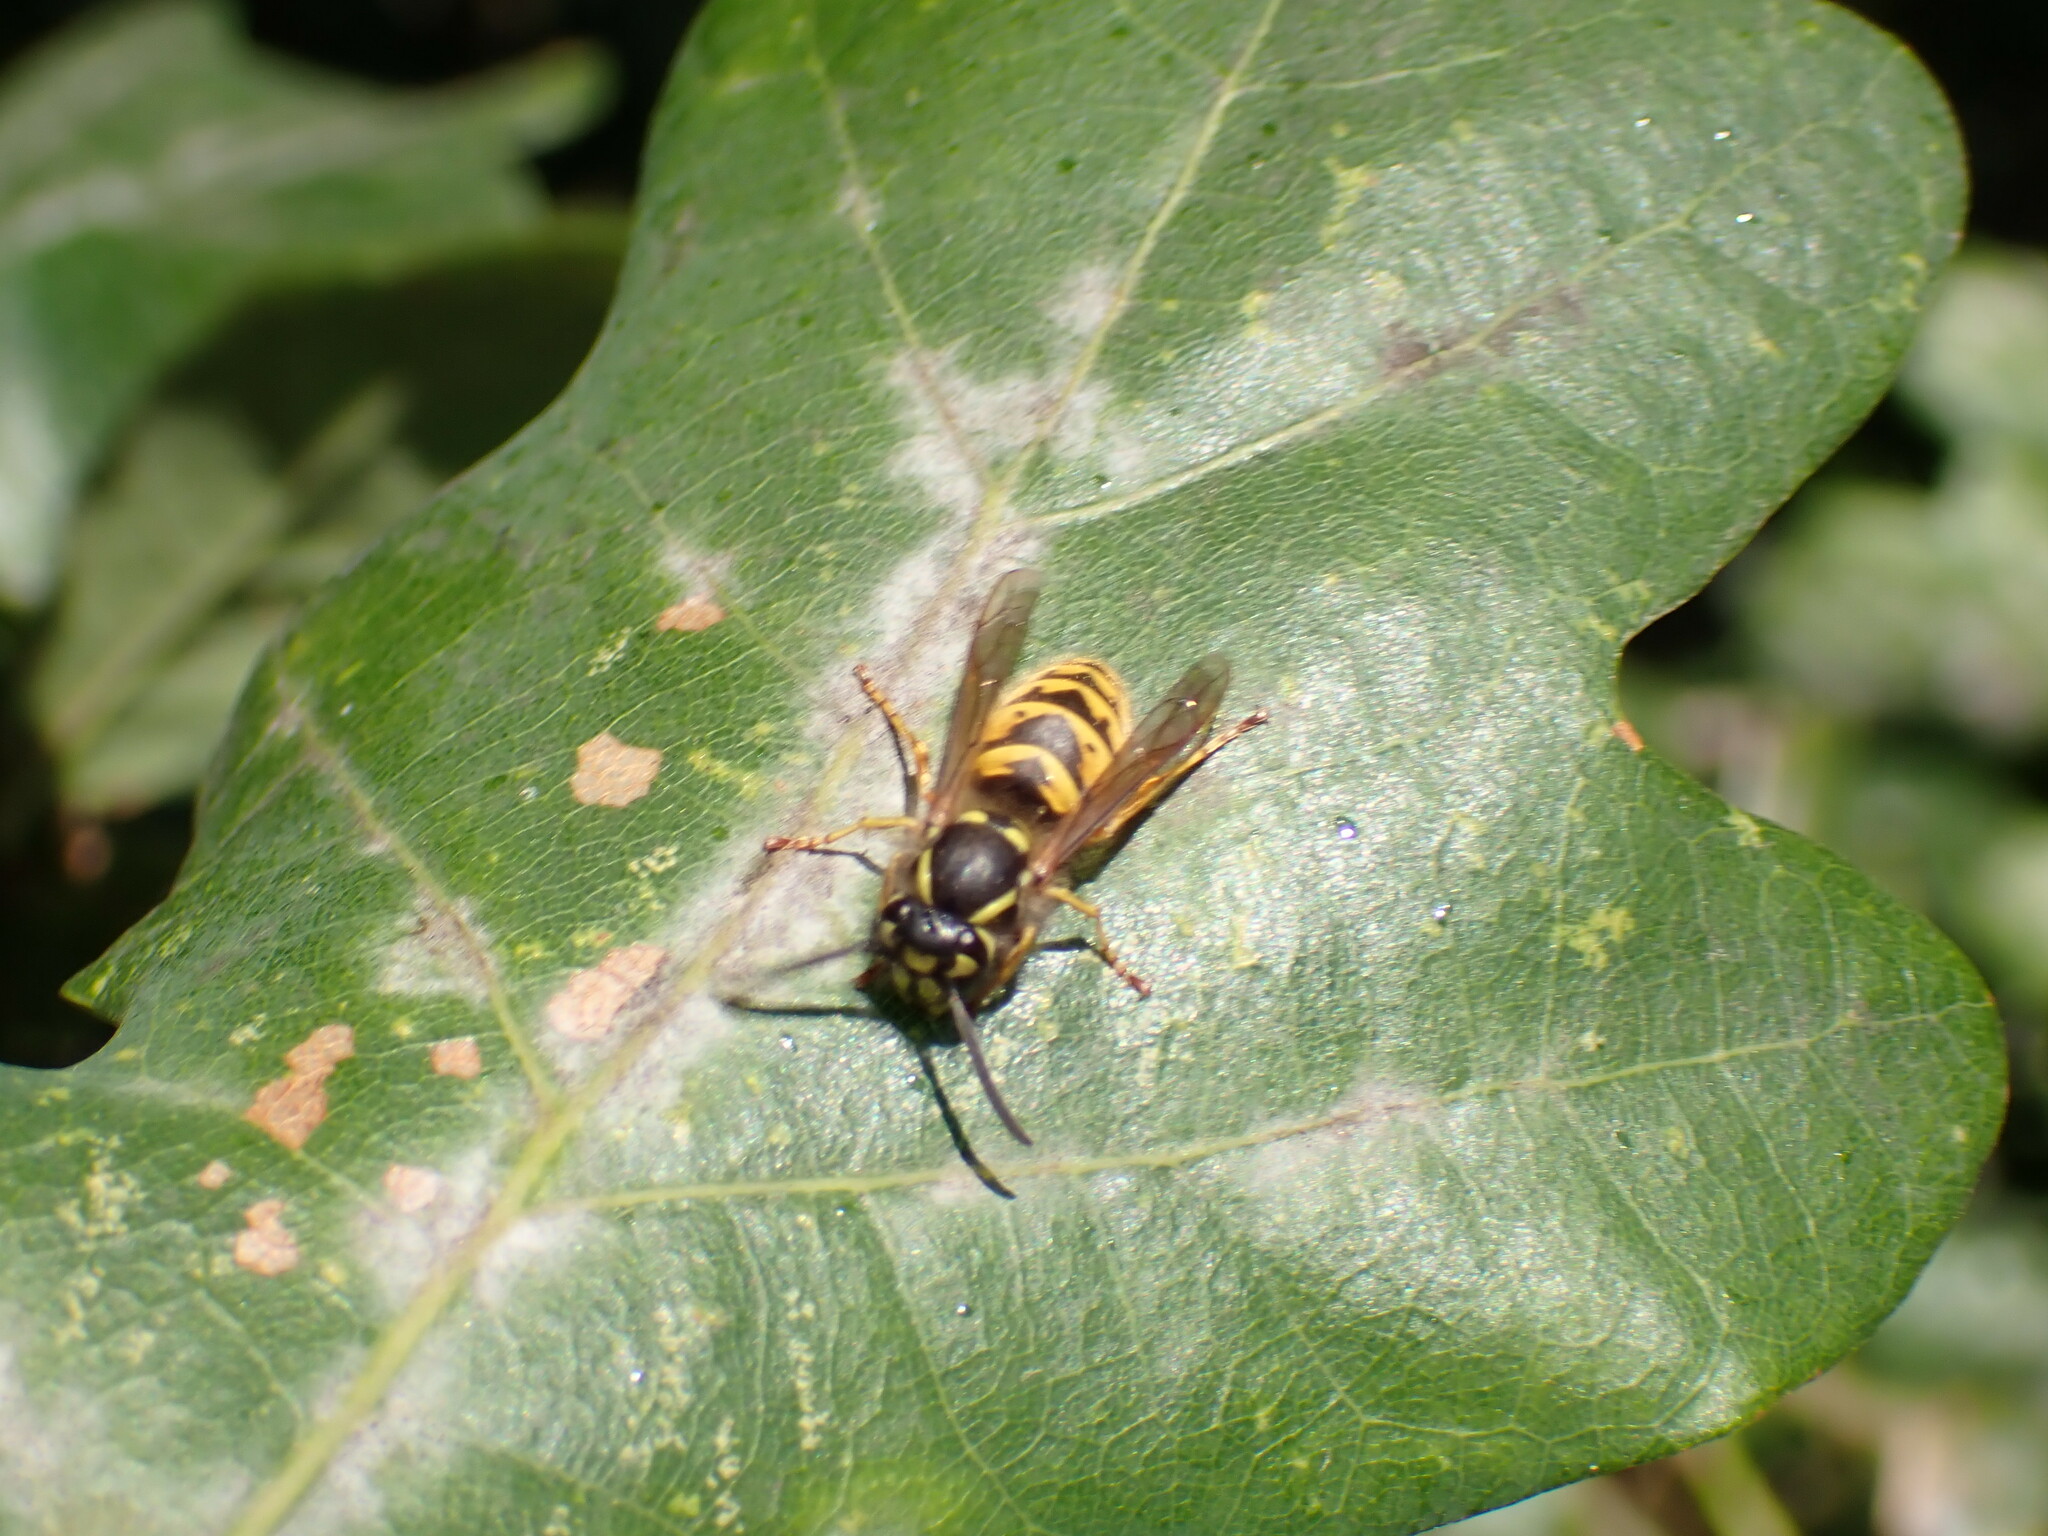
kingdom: Animalia
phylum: Arthropoda
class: Insecta
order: Hymenoptera
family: Vespidae
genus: Vespula
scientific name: Vespula vulgaris
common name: Common wasp
